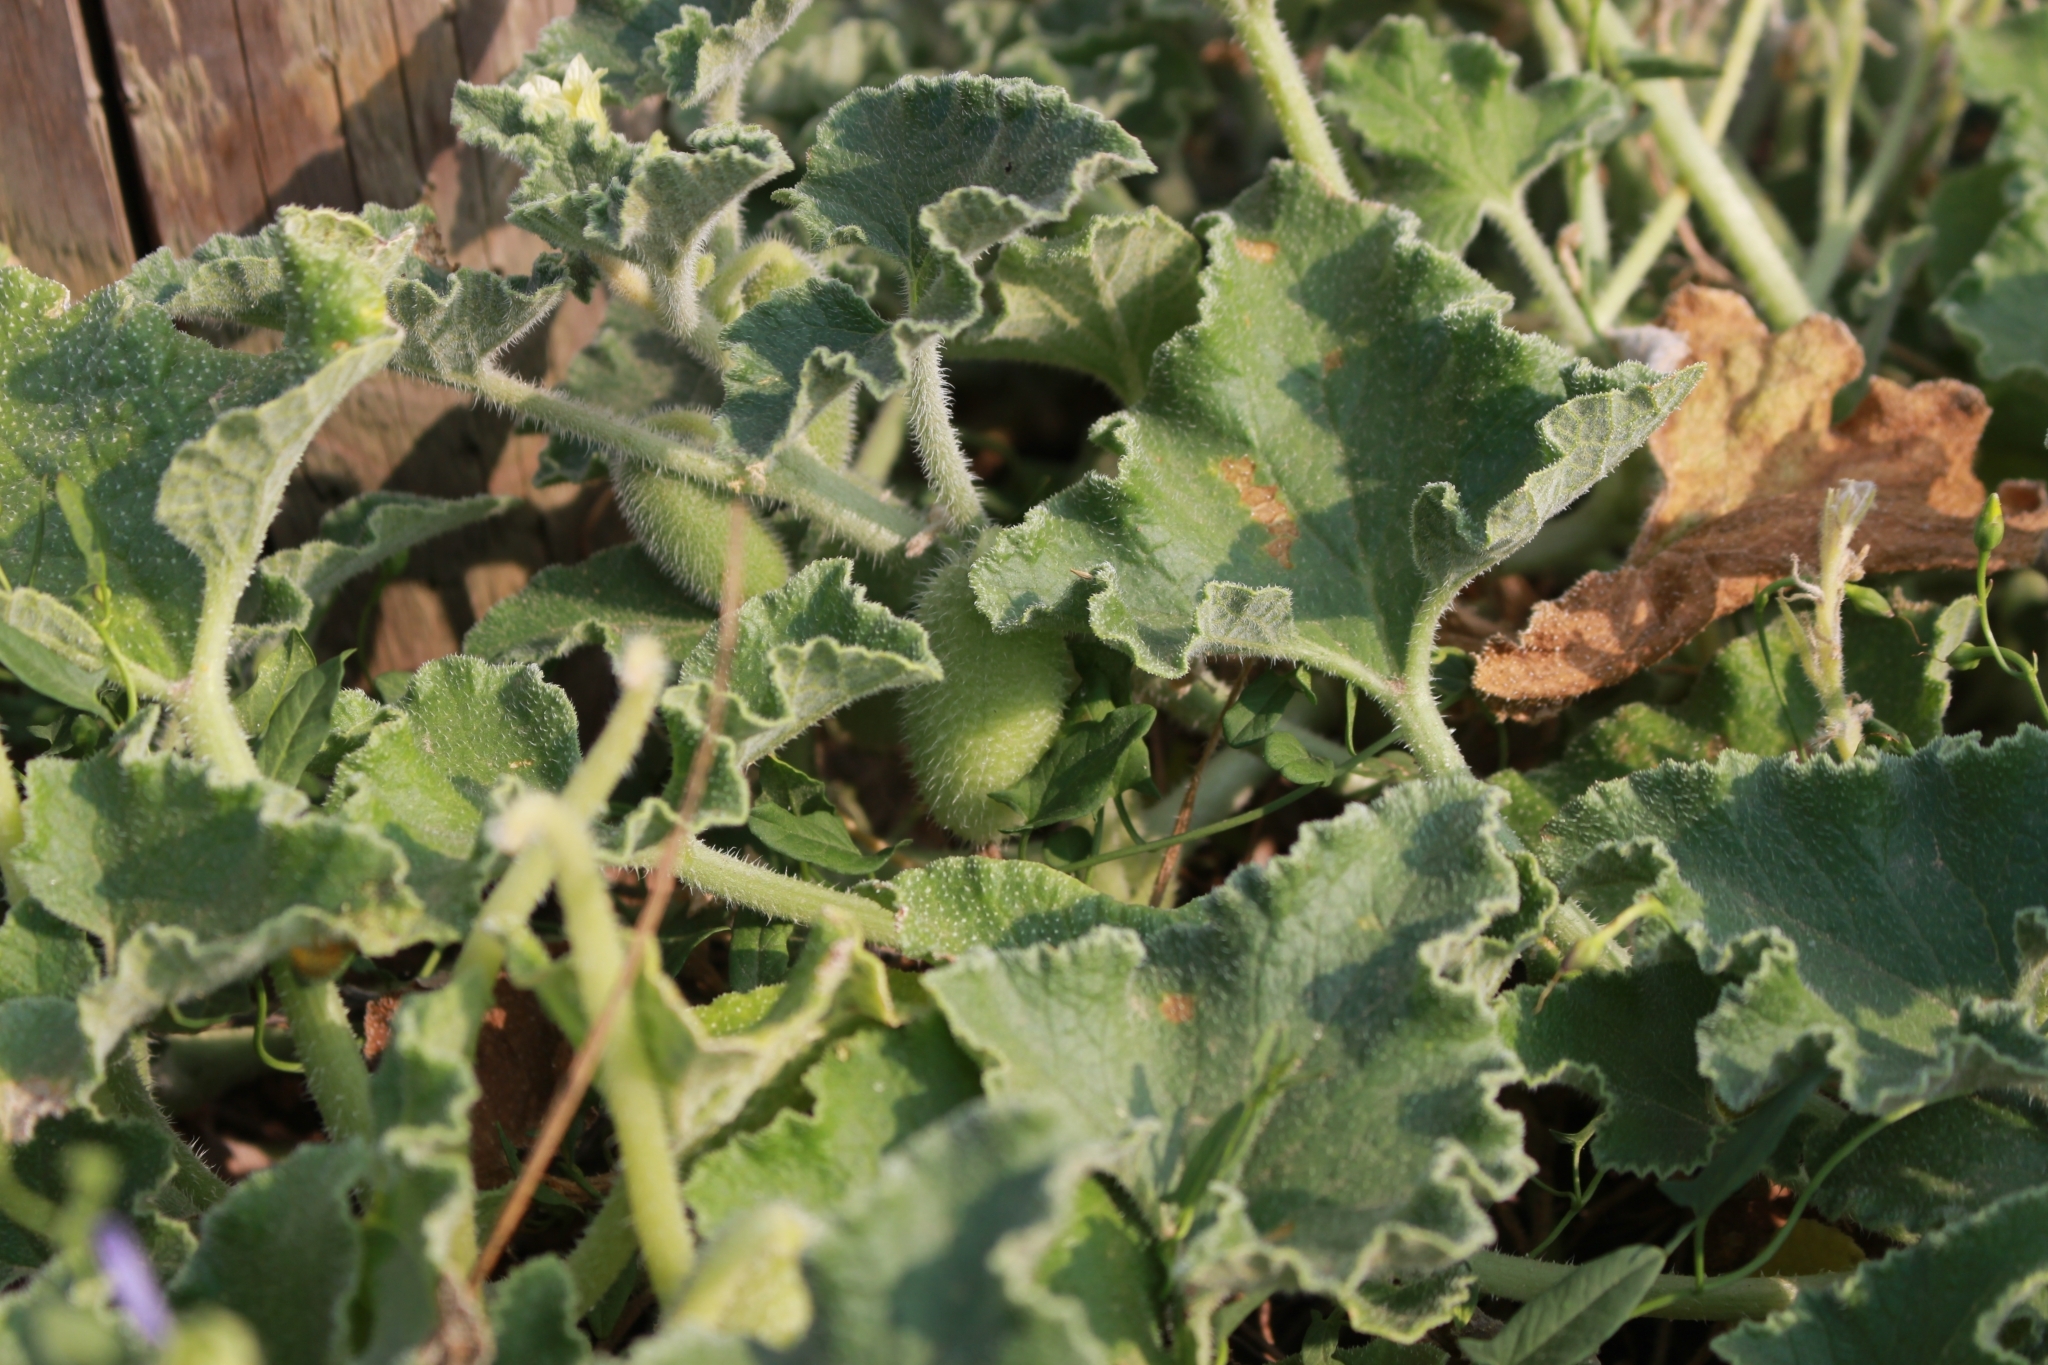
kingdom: Plantae
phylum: Tracheophyta
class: Magnoliopsida
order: Cucurbitales
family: Cucurbitaceae
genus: Ecballium
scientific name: Ecballium elaterium
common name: Squirting cucumber
